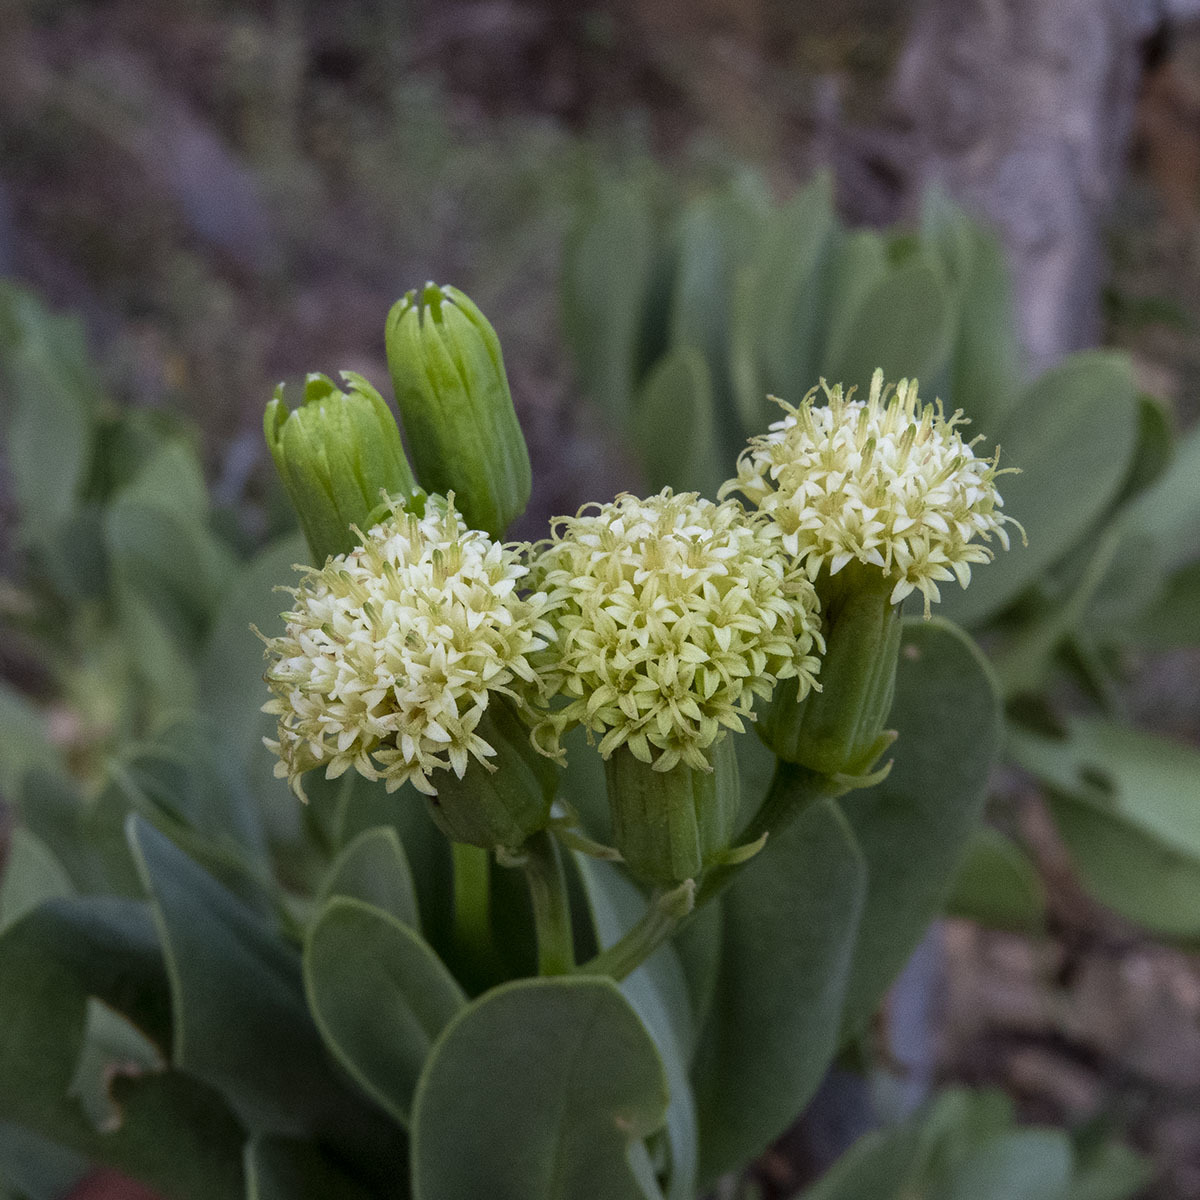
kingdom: Plantae
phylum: Tracheophyta
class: Magnoliopsida
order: Asterales
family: Asteraceae
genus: Kleinia
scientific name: Kleinia grandiflora
